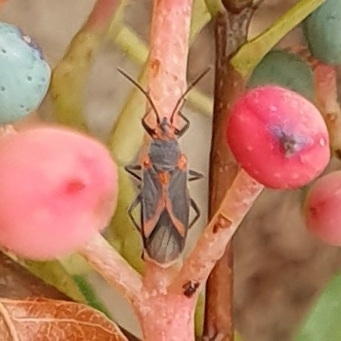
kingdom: Animalia
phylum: Arthropoda
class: Insecta
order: Hemiptera
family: Lygaeidae
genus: Caenocoris
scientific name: Caenocoris nerii
